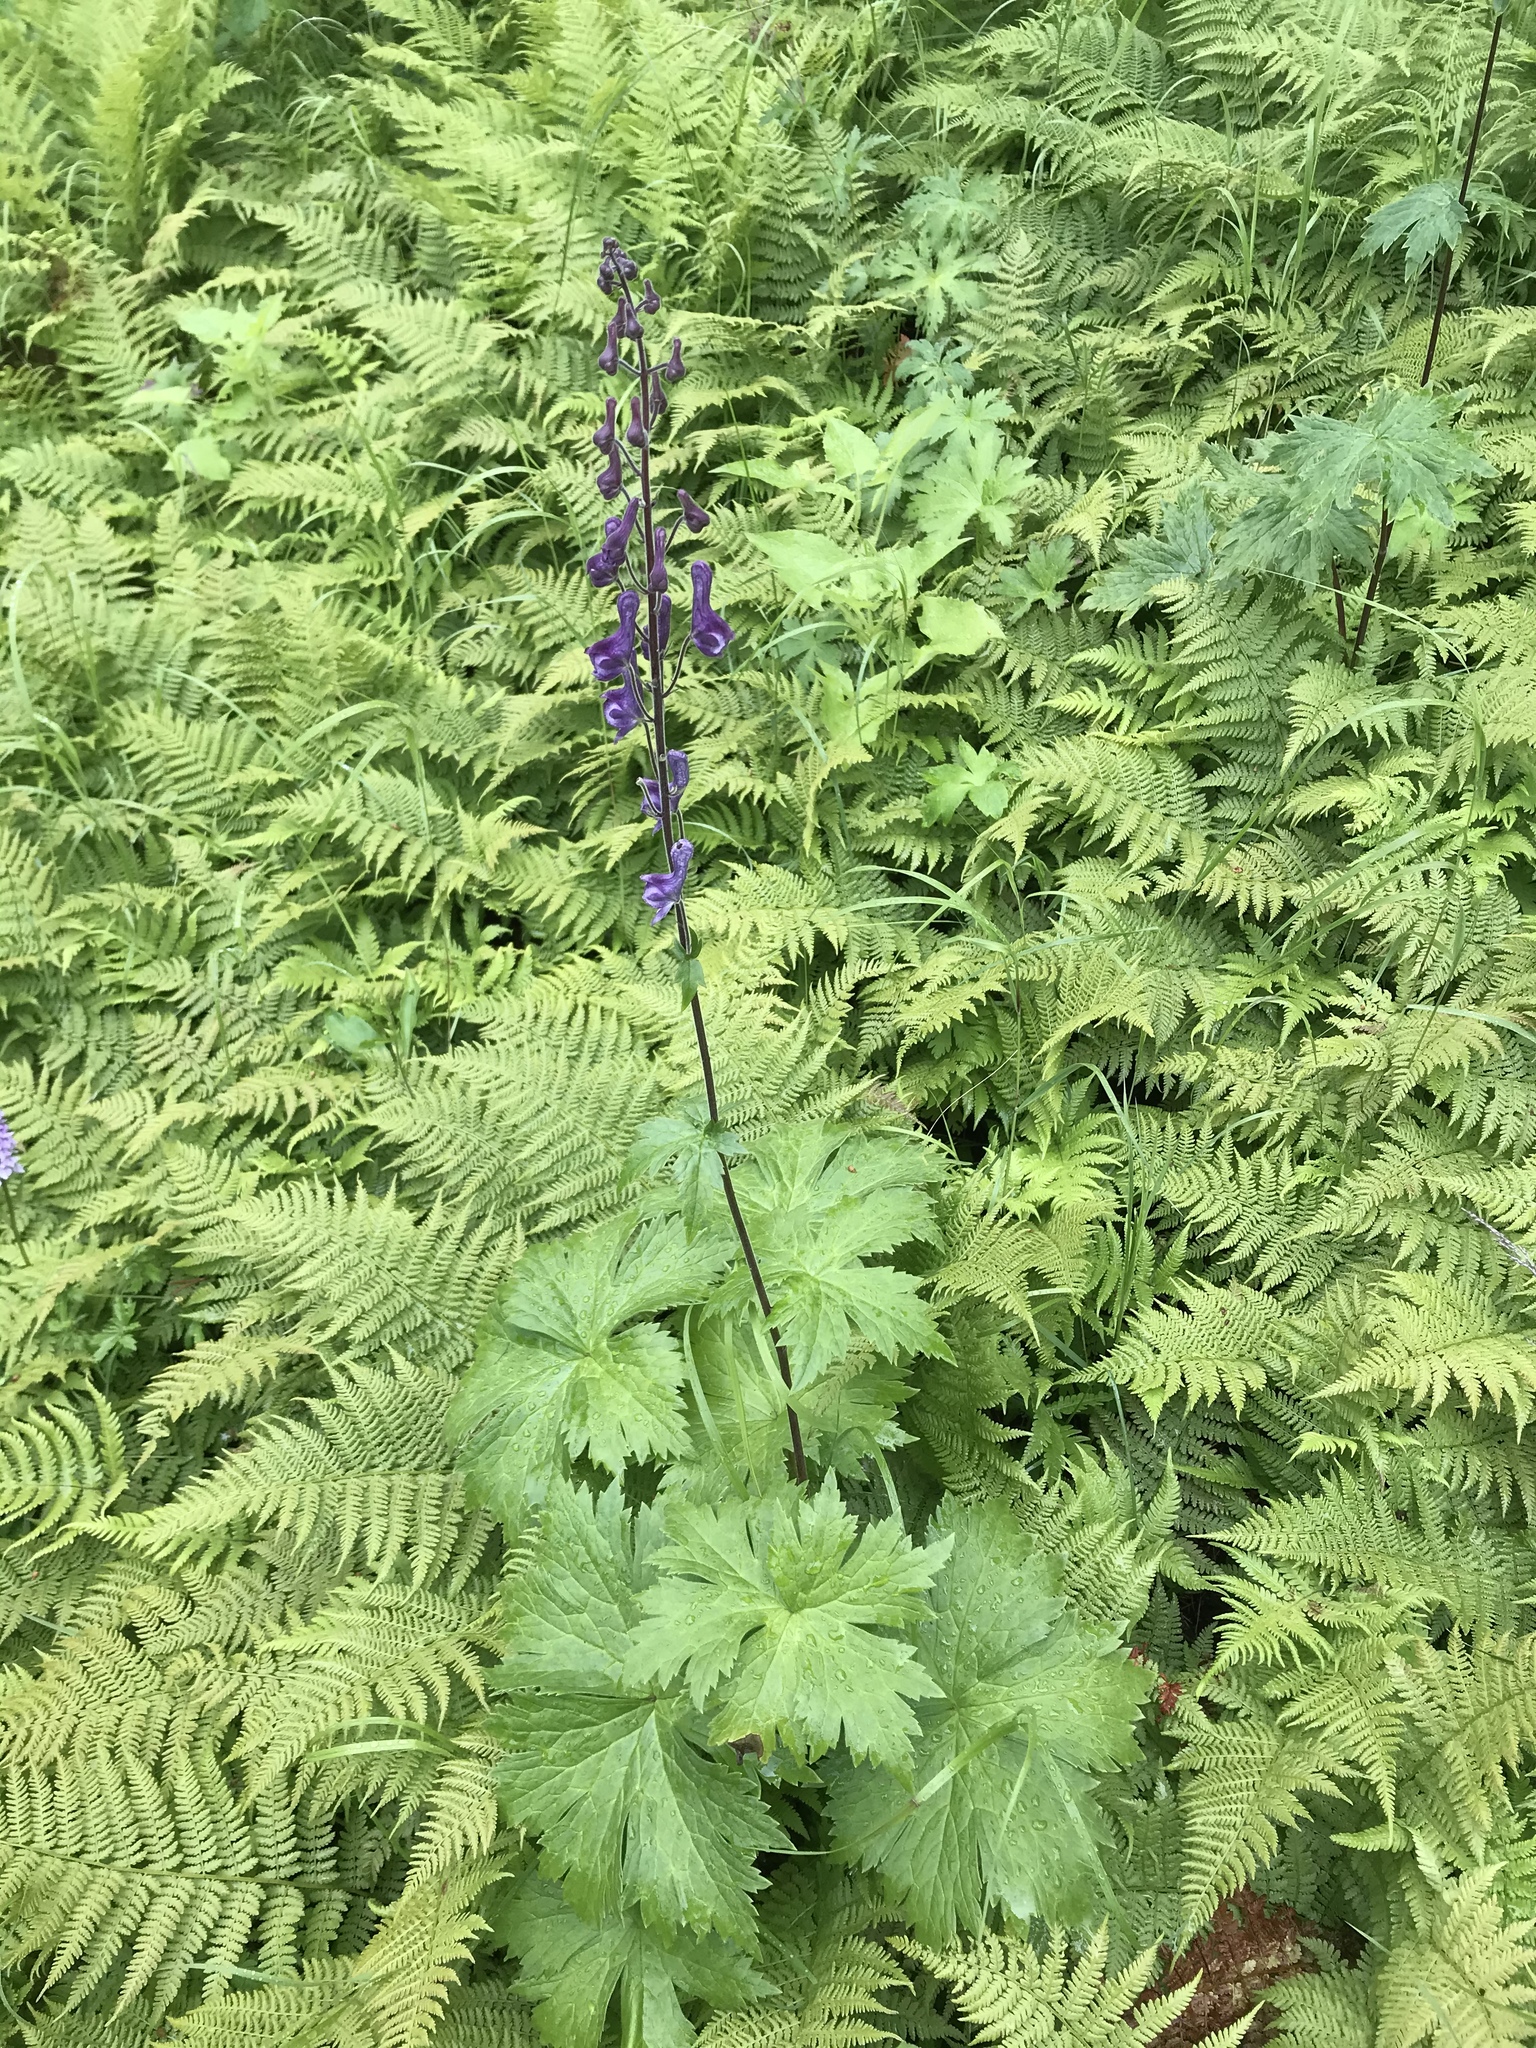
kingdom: Plantae
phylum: Tracheophyta
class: Magnoliopsida
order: Ranunculales
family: Ranunculaceae
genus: Aconitum
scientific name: Aconitum septentrionale
